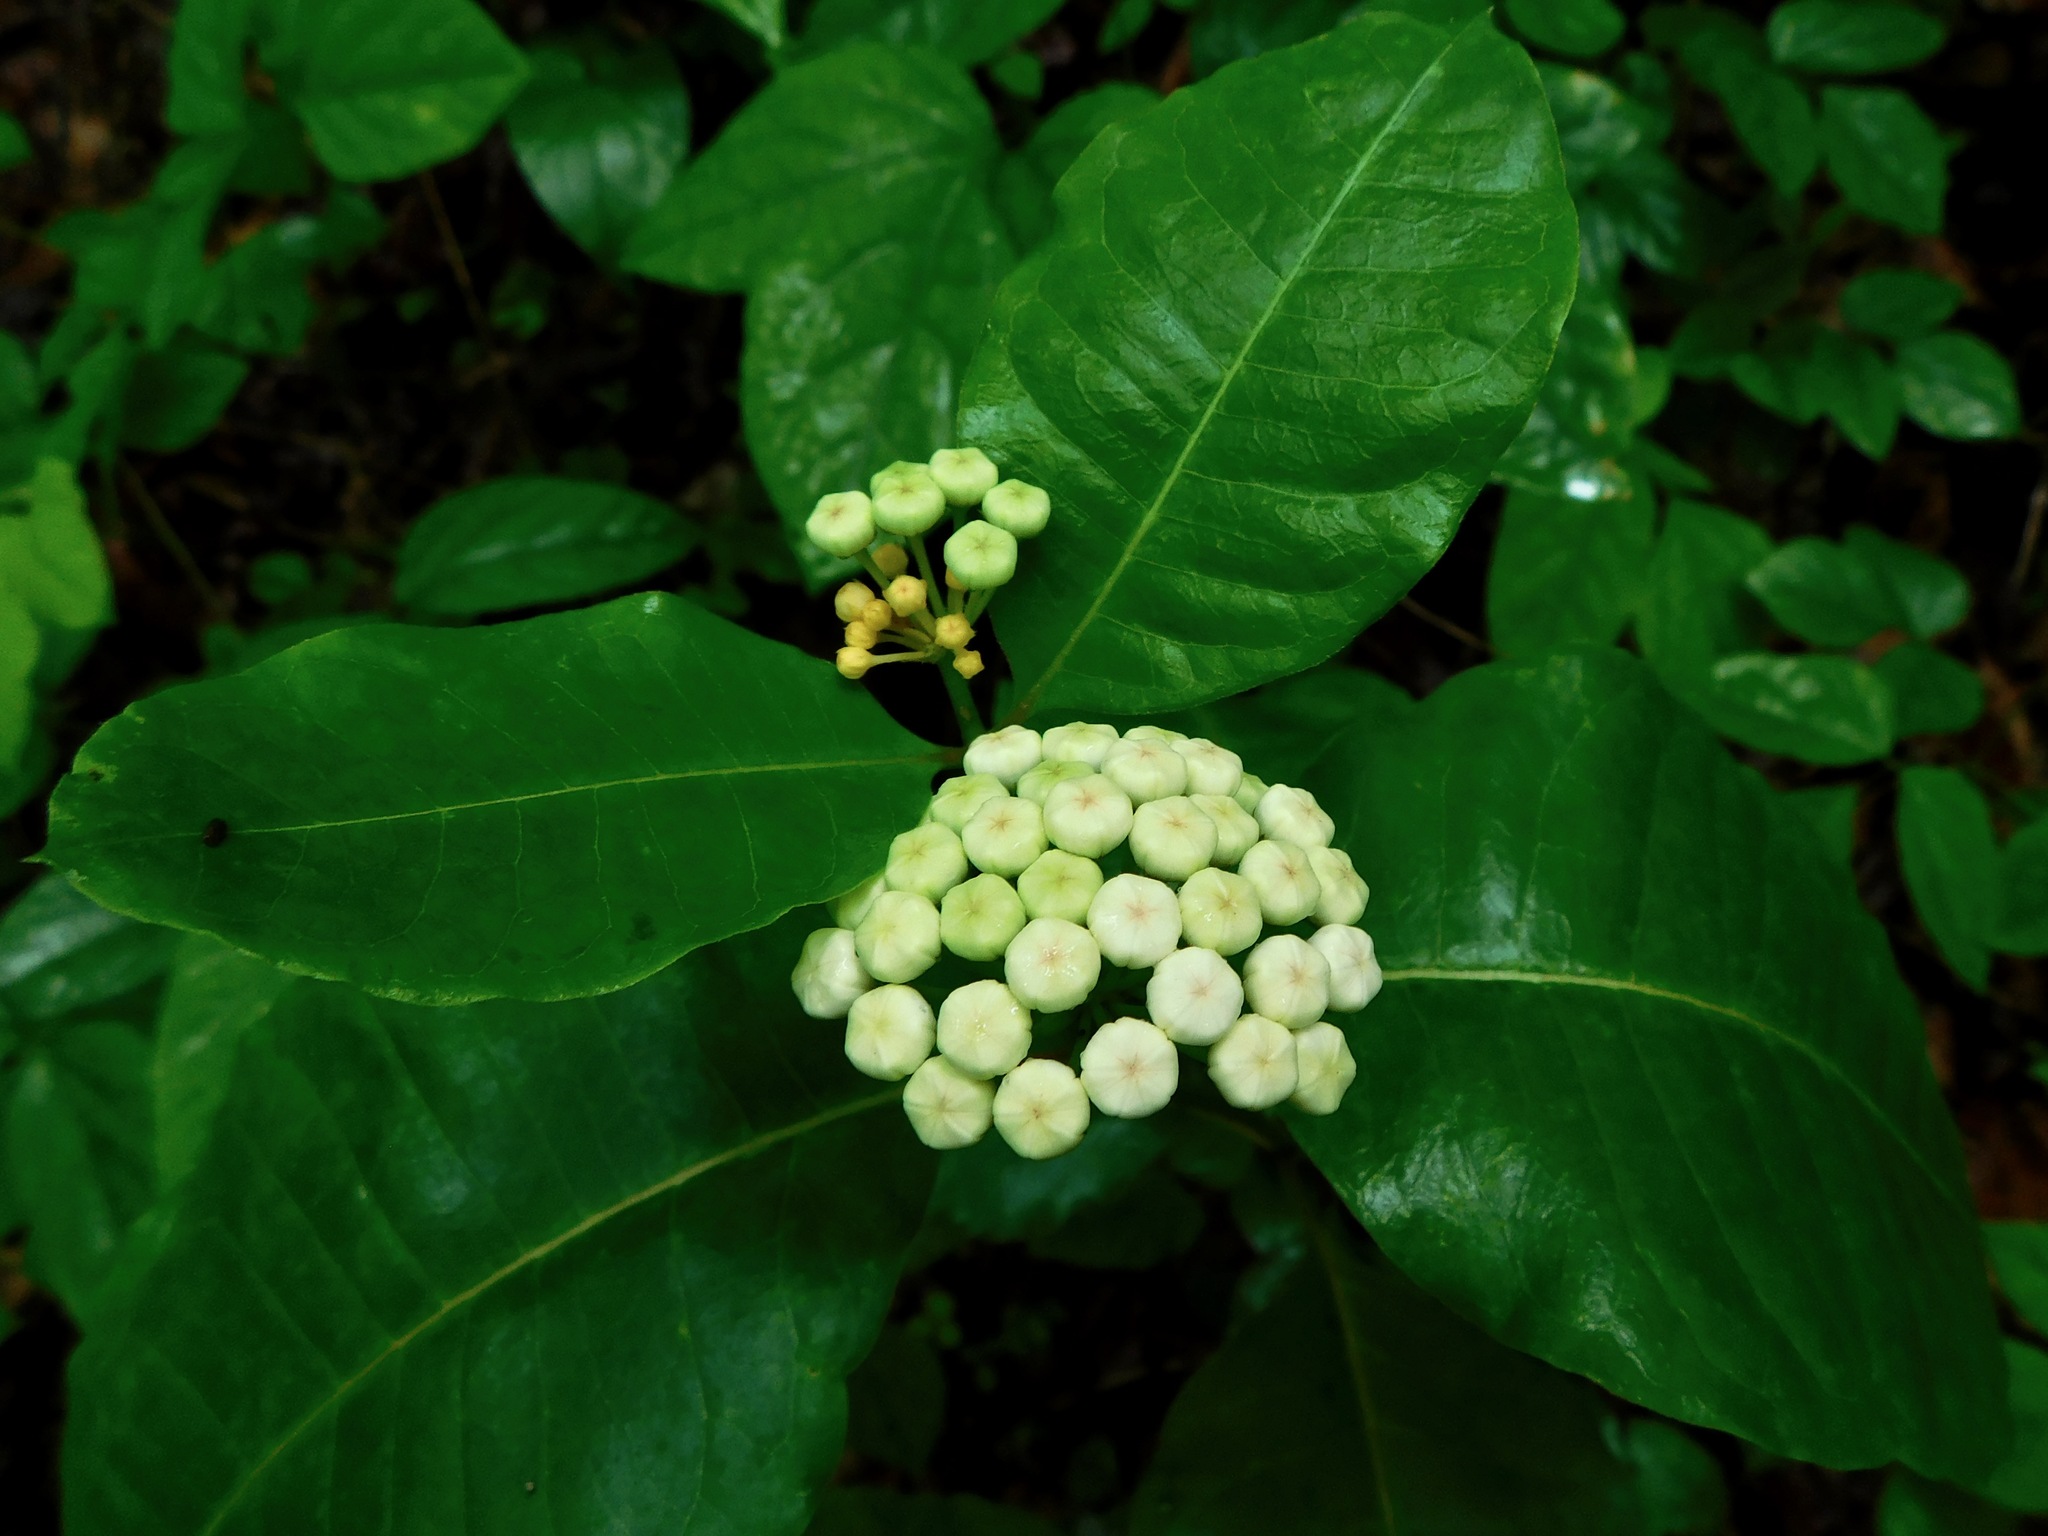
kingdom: Plantae
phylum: Tracheophyta
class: Magnoliopsida
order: Gentianales
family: Apocynaceae
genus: Asclepias
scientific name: Asclepias variegata
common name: Variegated milkweed
